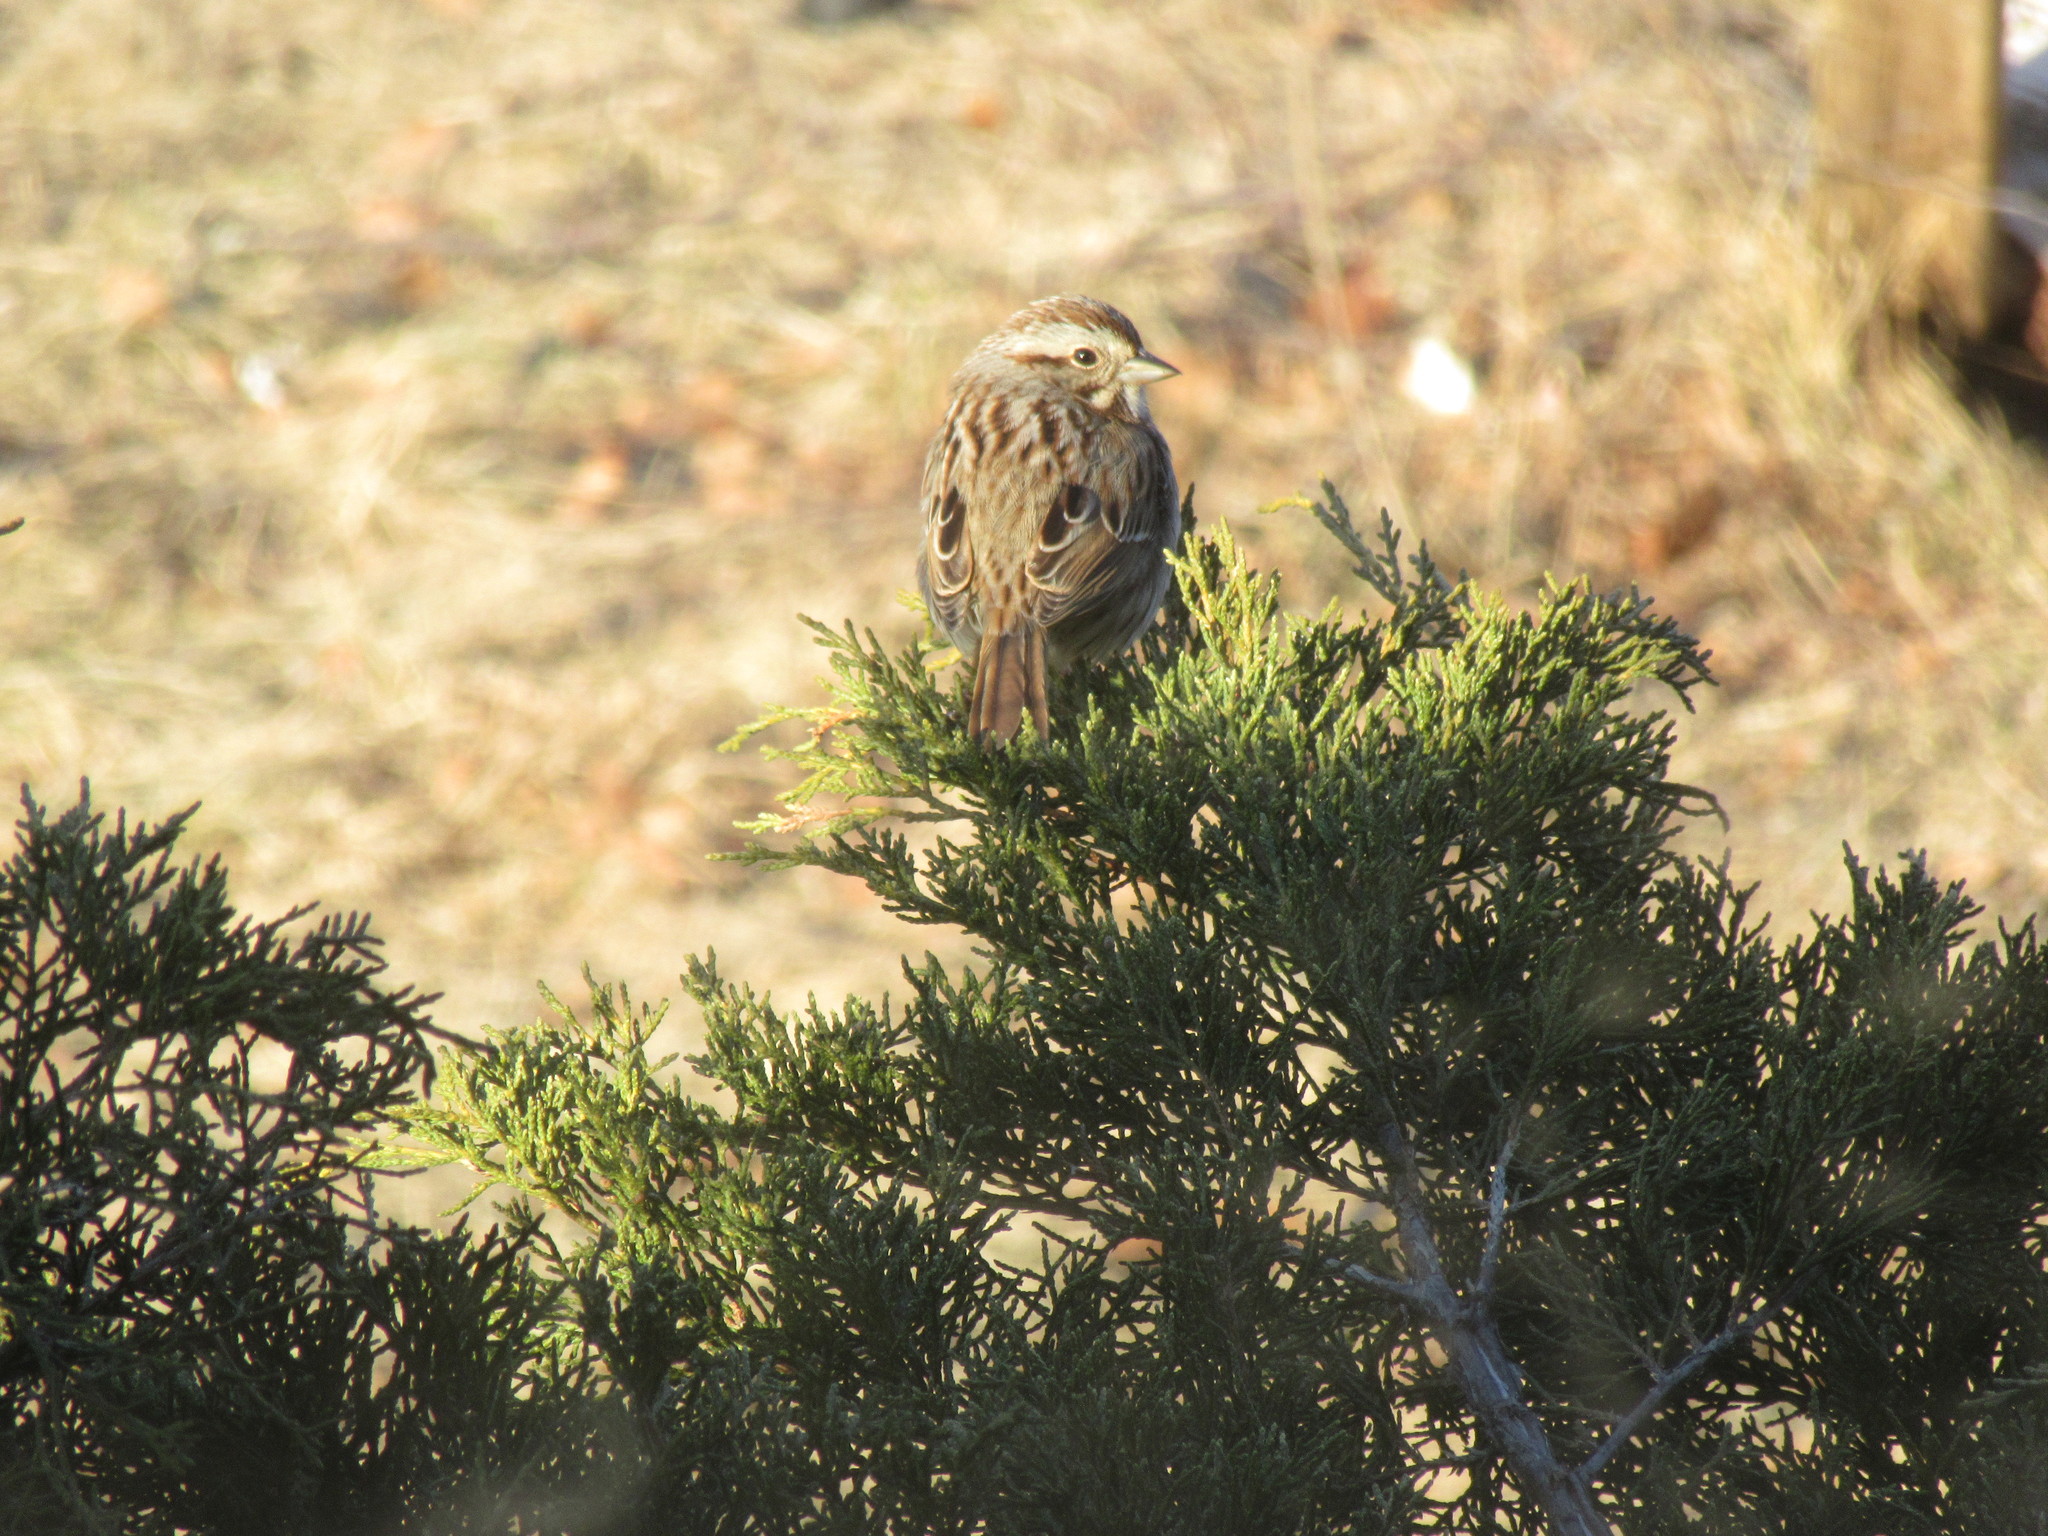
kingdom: Animalia
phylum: Chordata
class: Aves
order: Passeriformes
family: Passerellidae
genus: Melospiza
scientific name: Melospiza melodia
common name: Song sparrow
